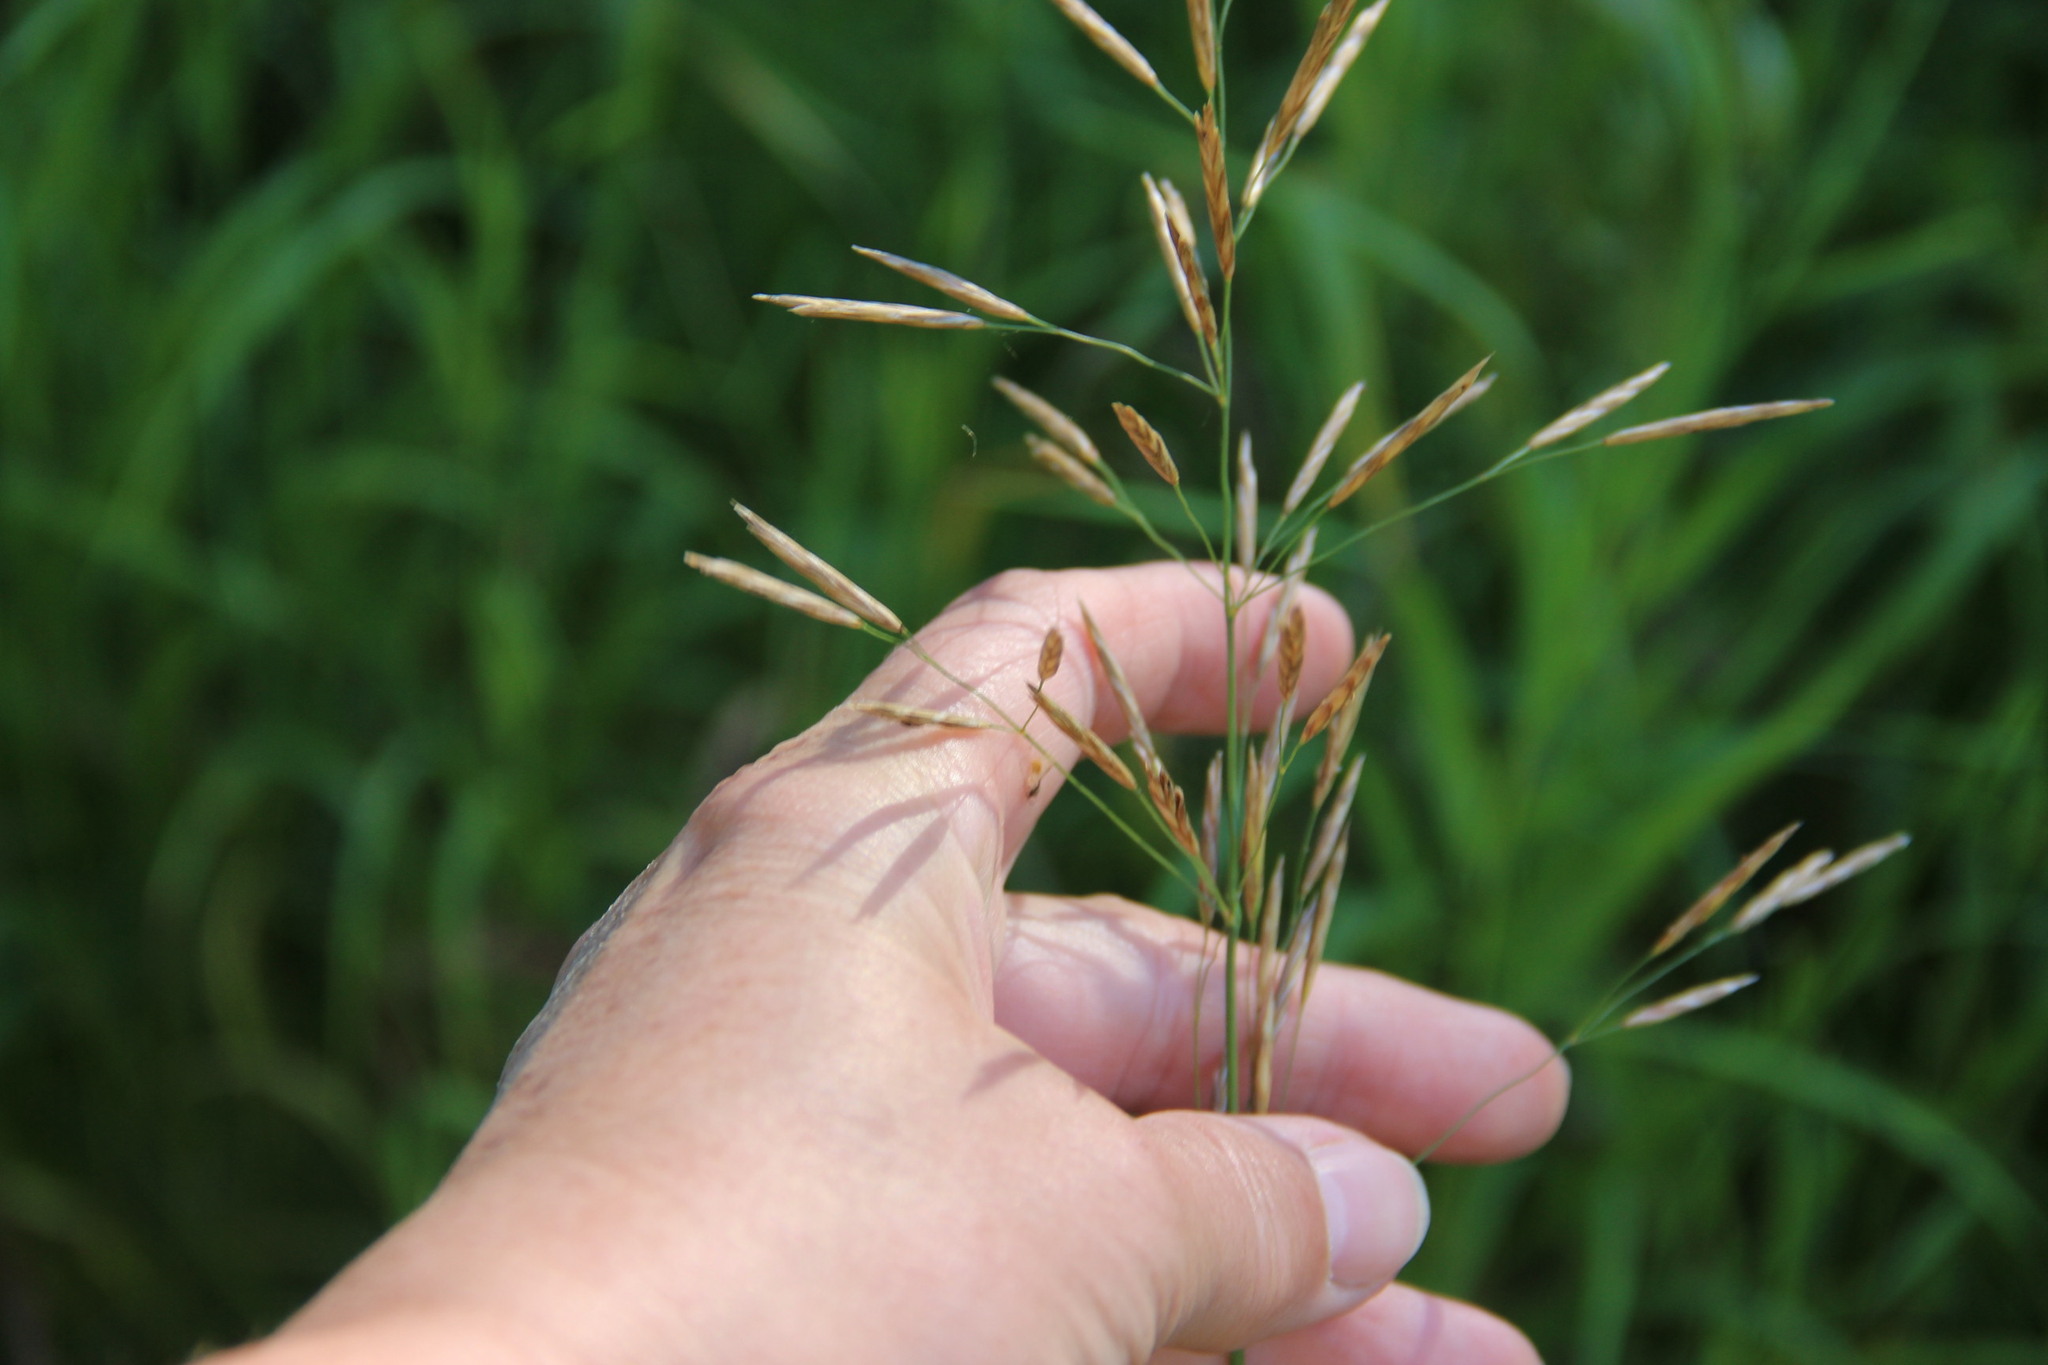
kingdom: Plantae
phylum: Tracheophyta
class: Liliopsida
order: Poales
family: Poaceae
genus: Bromus
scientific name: Bromus inermis
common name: Smooth brome
